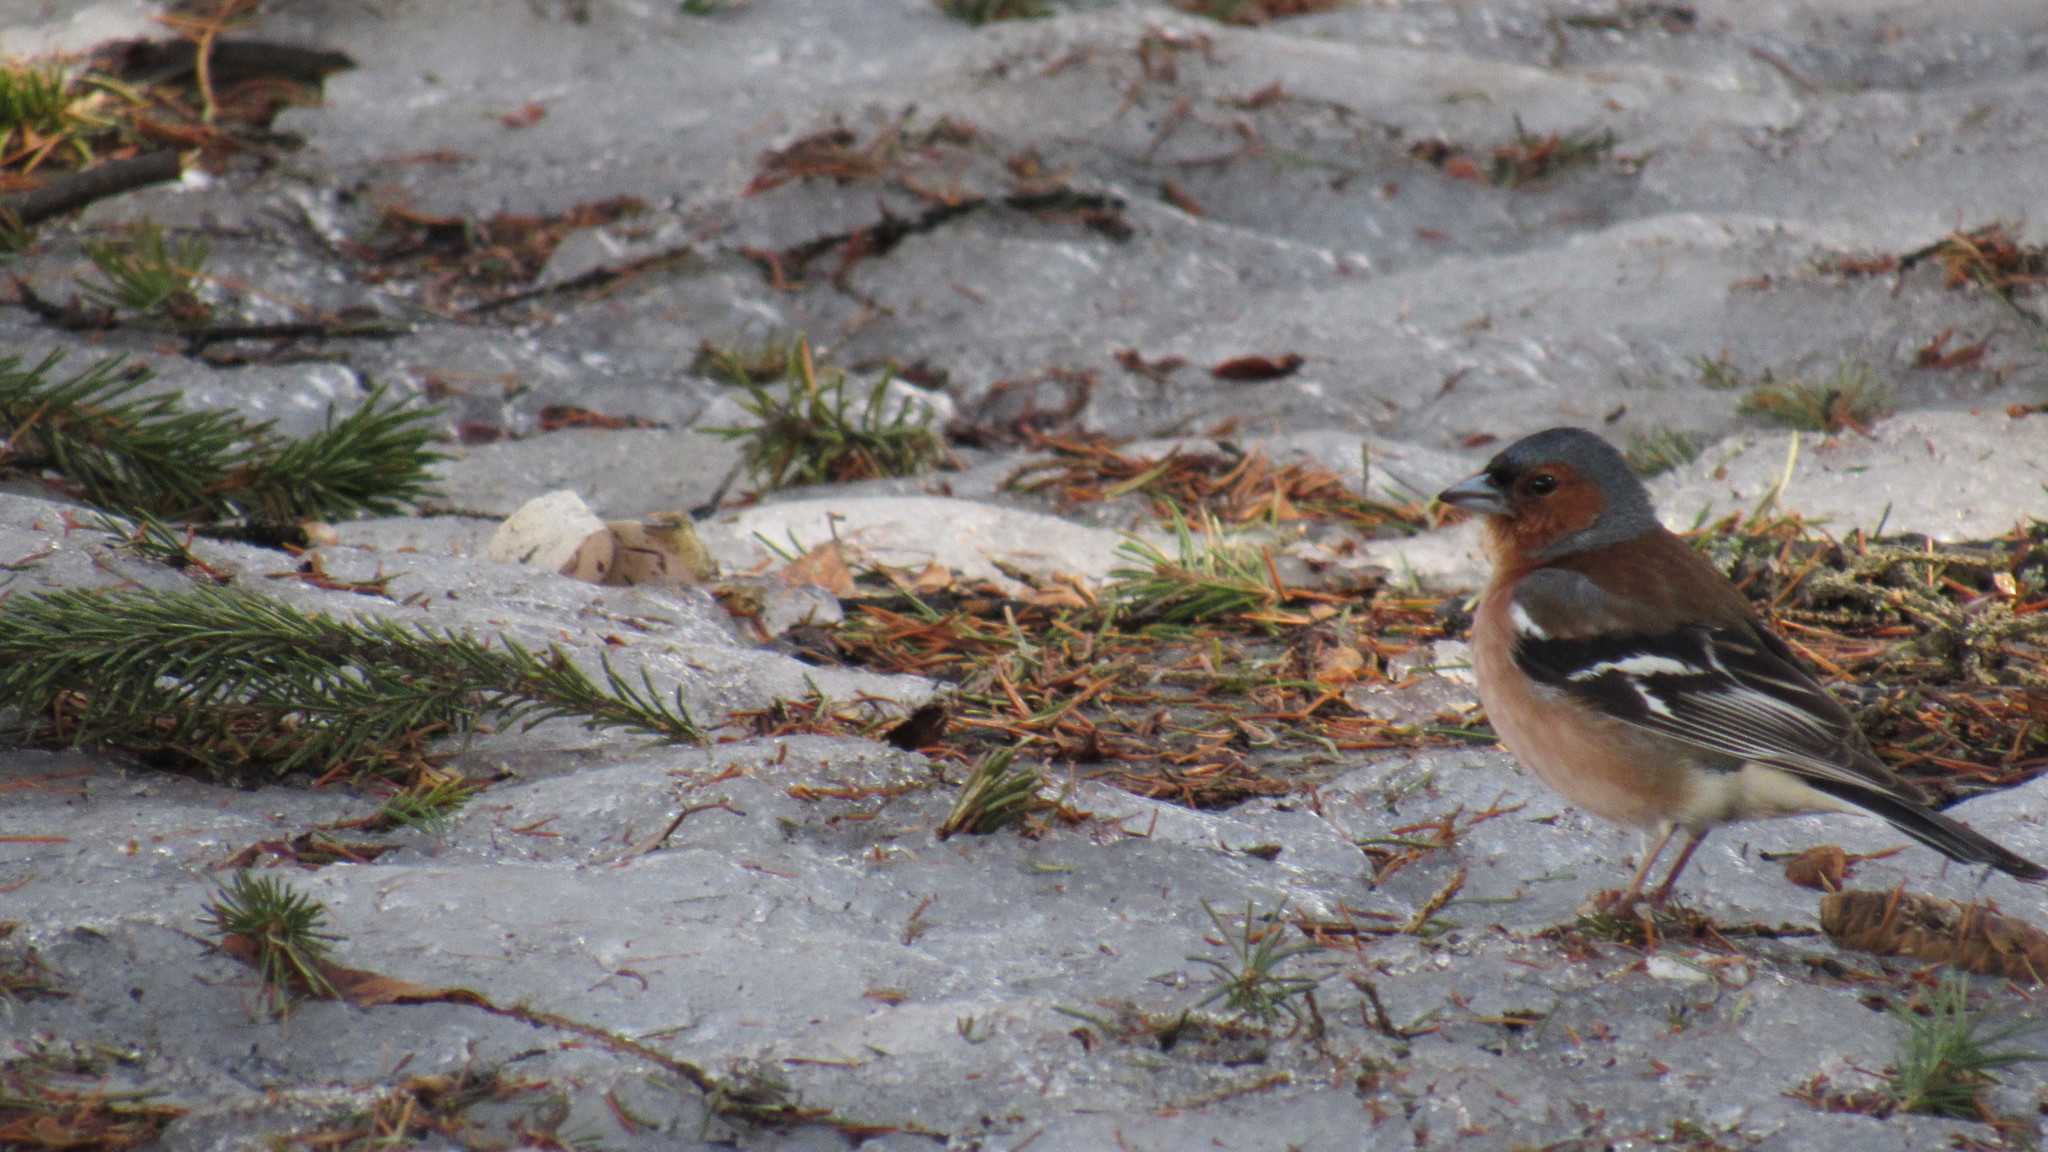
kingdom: Animalia
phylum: Chordata
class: Aves
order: Passeriformes
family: Fringillidae
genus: Fringilla
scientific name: Fringilla coelebs
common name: Common chaffinch
